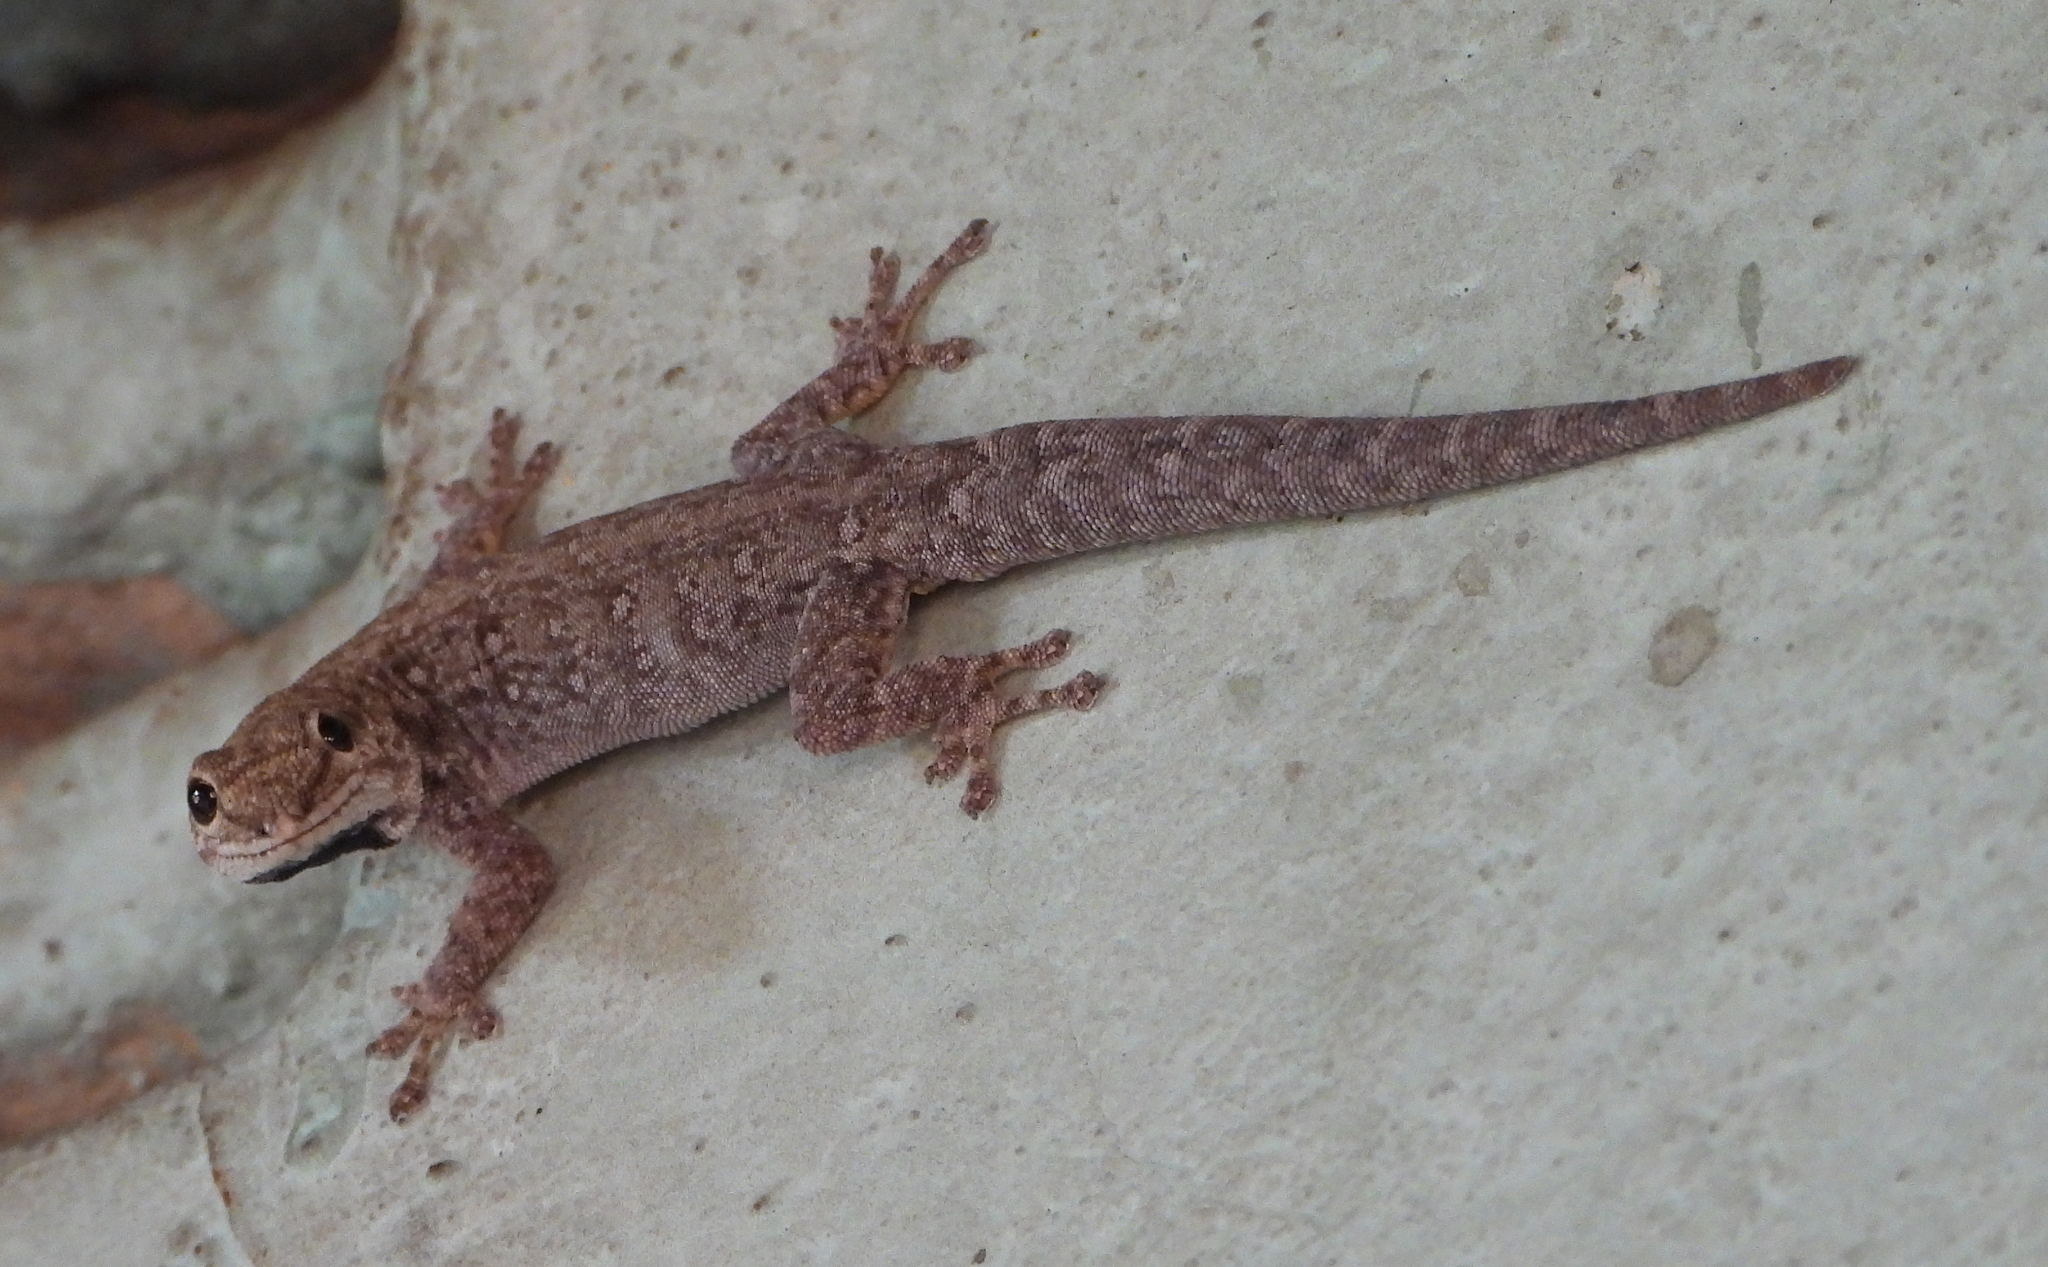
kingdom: Animalia
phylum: Chordata
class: Squamata
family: Gekkonidae
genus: Lygodactylus
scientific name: Lygodactylus chobiensis
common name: Okavango dwarf gecko
